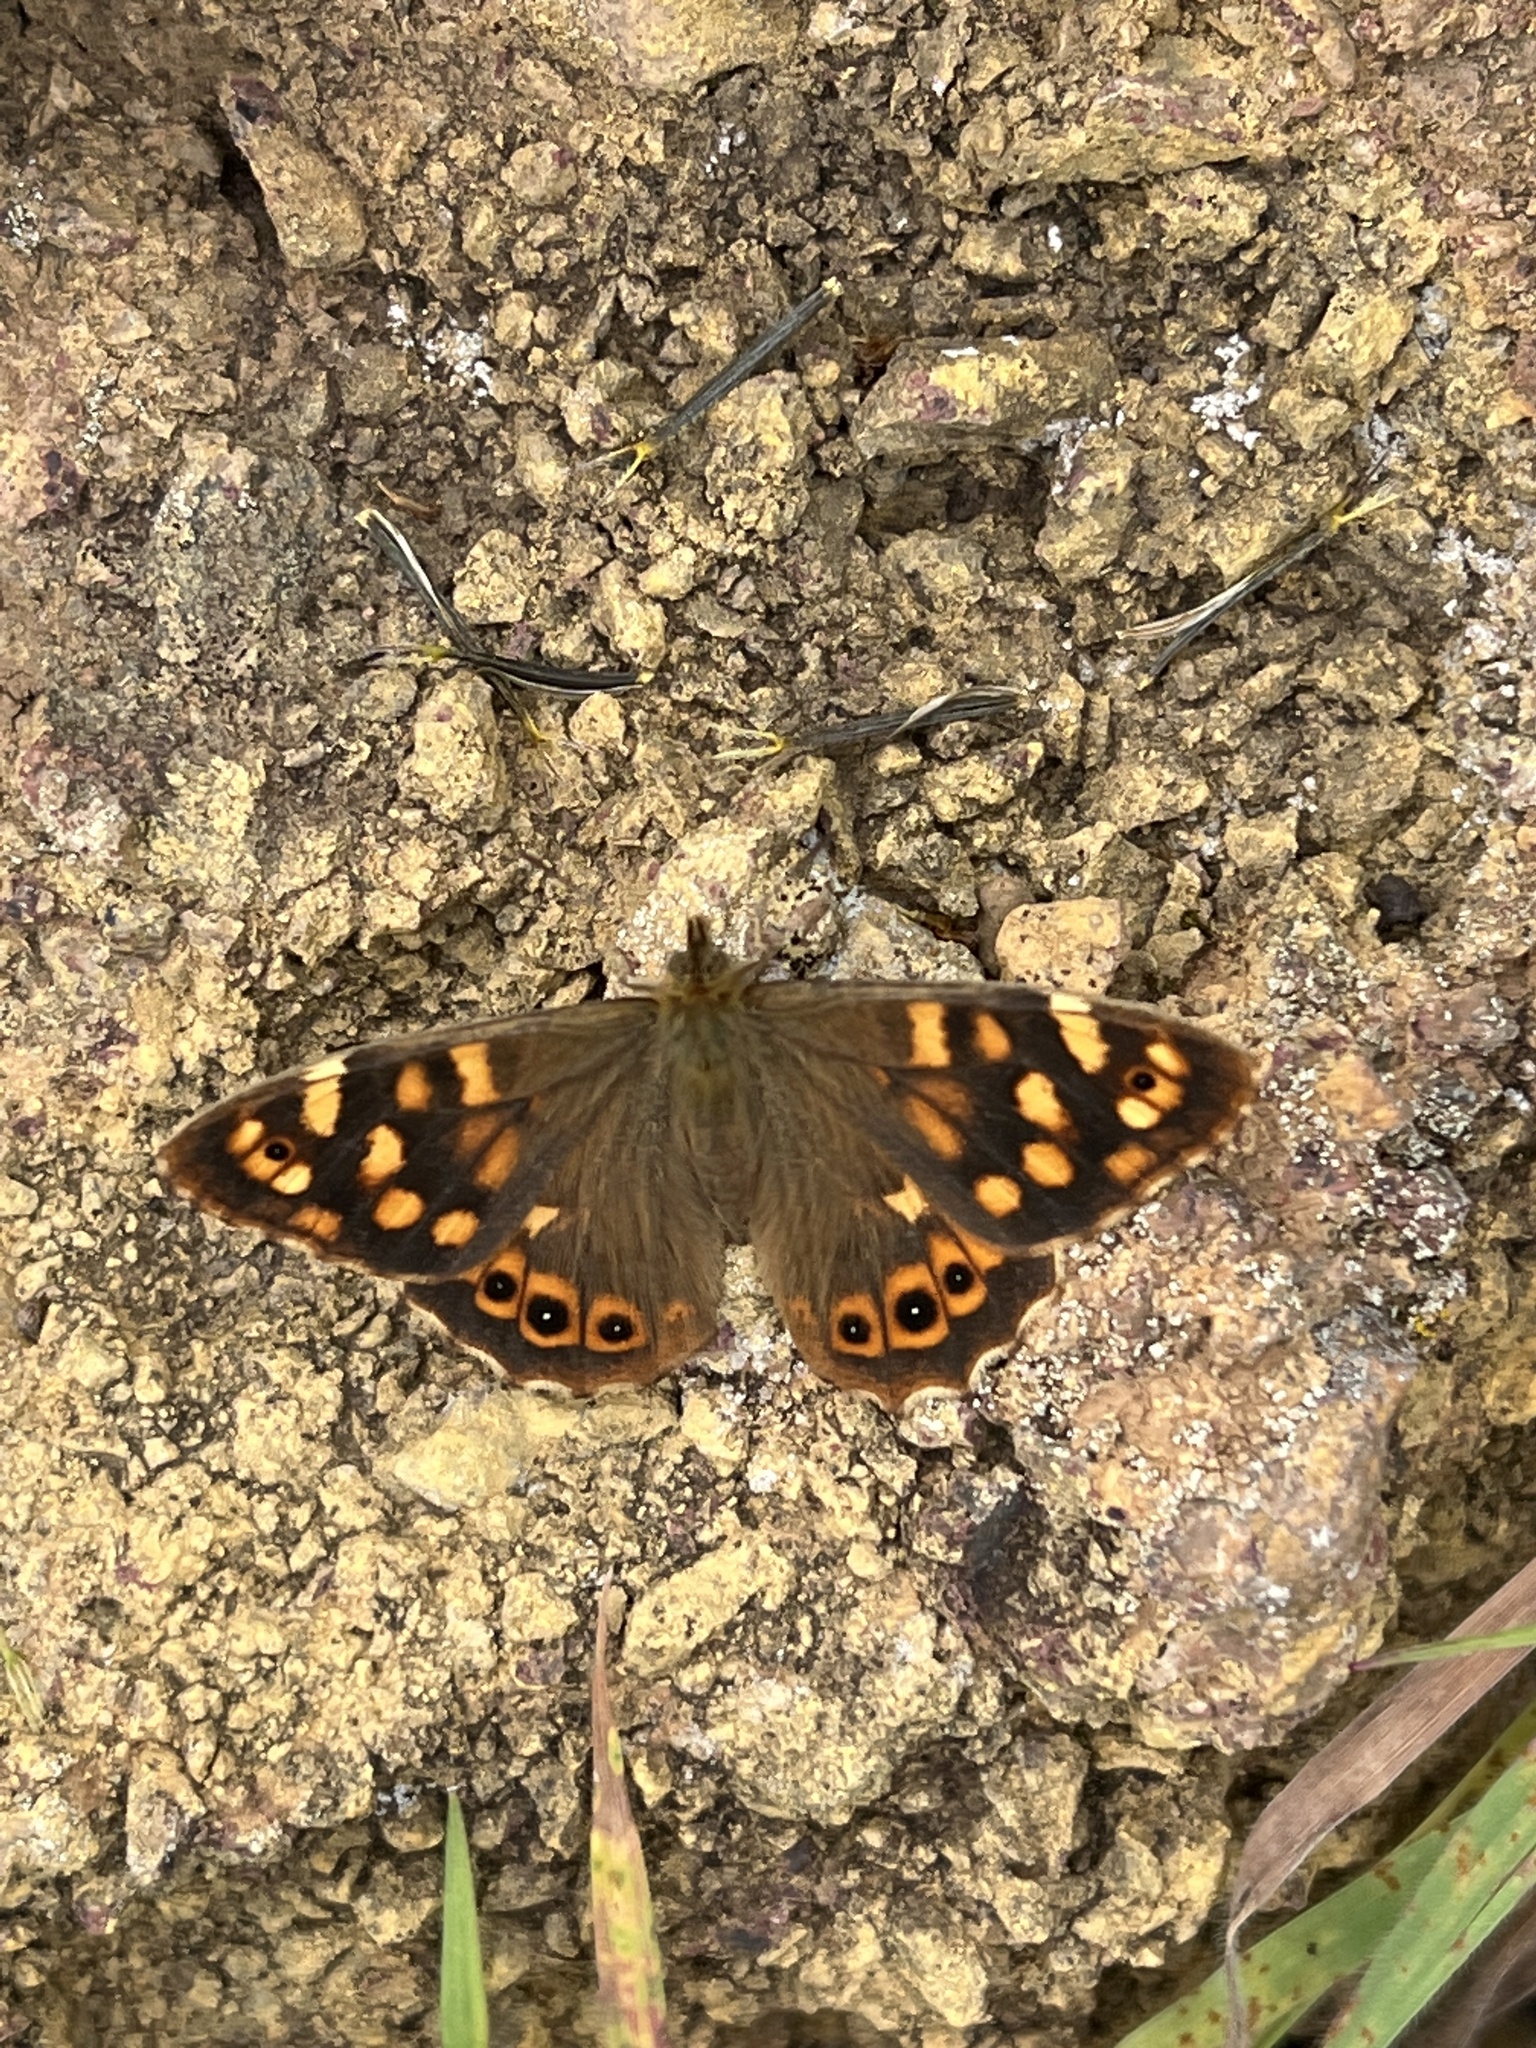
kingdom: Animalia
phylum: Arthropoda
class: Insecta
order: Lepidoptera
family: Nymphalidae
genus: Pararge
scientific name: Pararge aegeria
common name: Speckled wood
